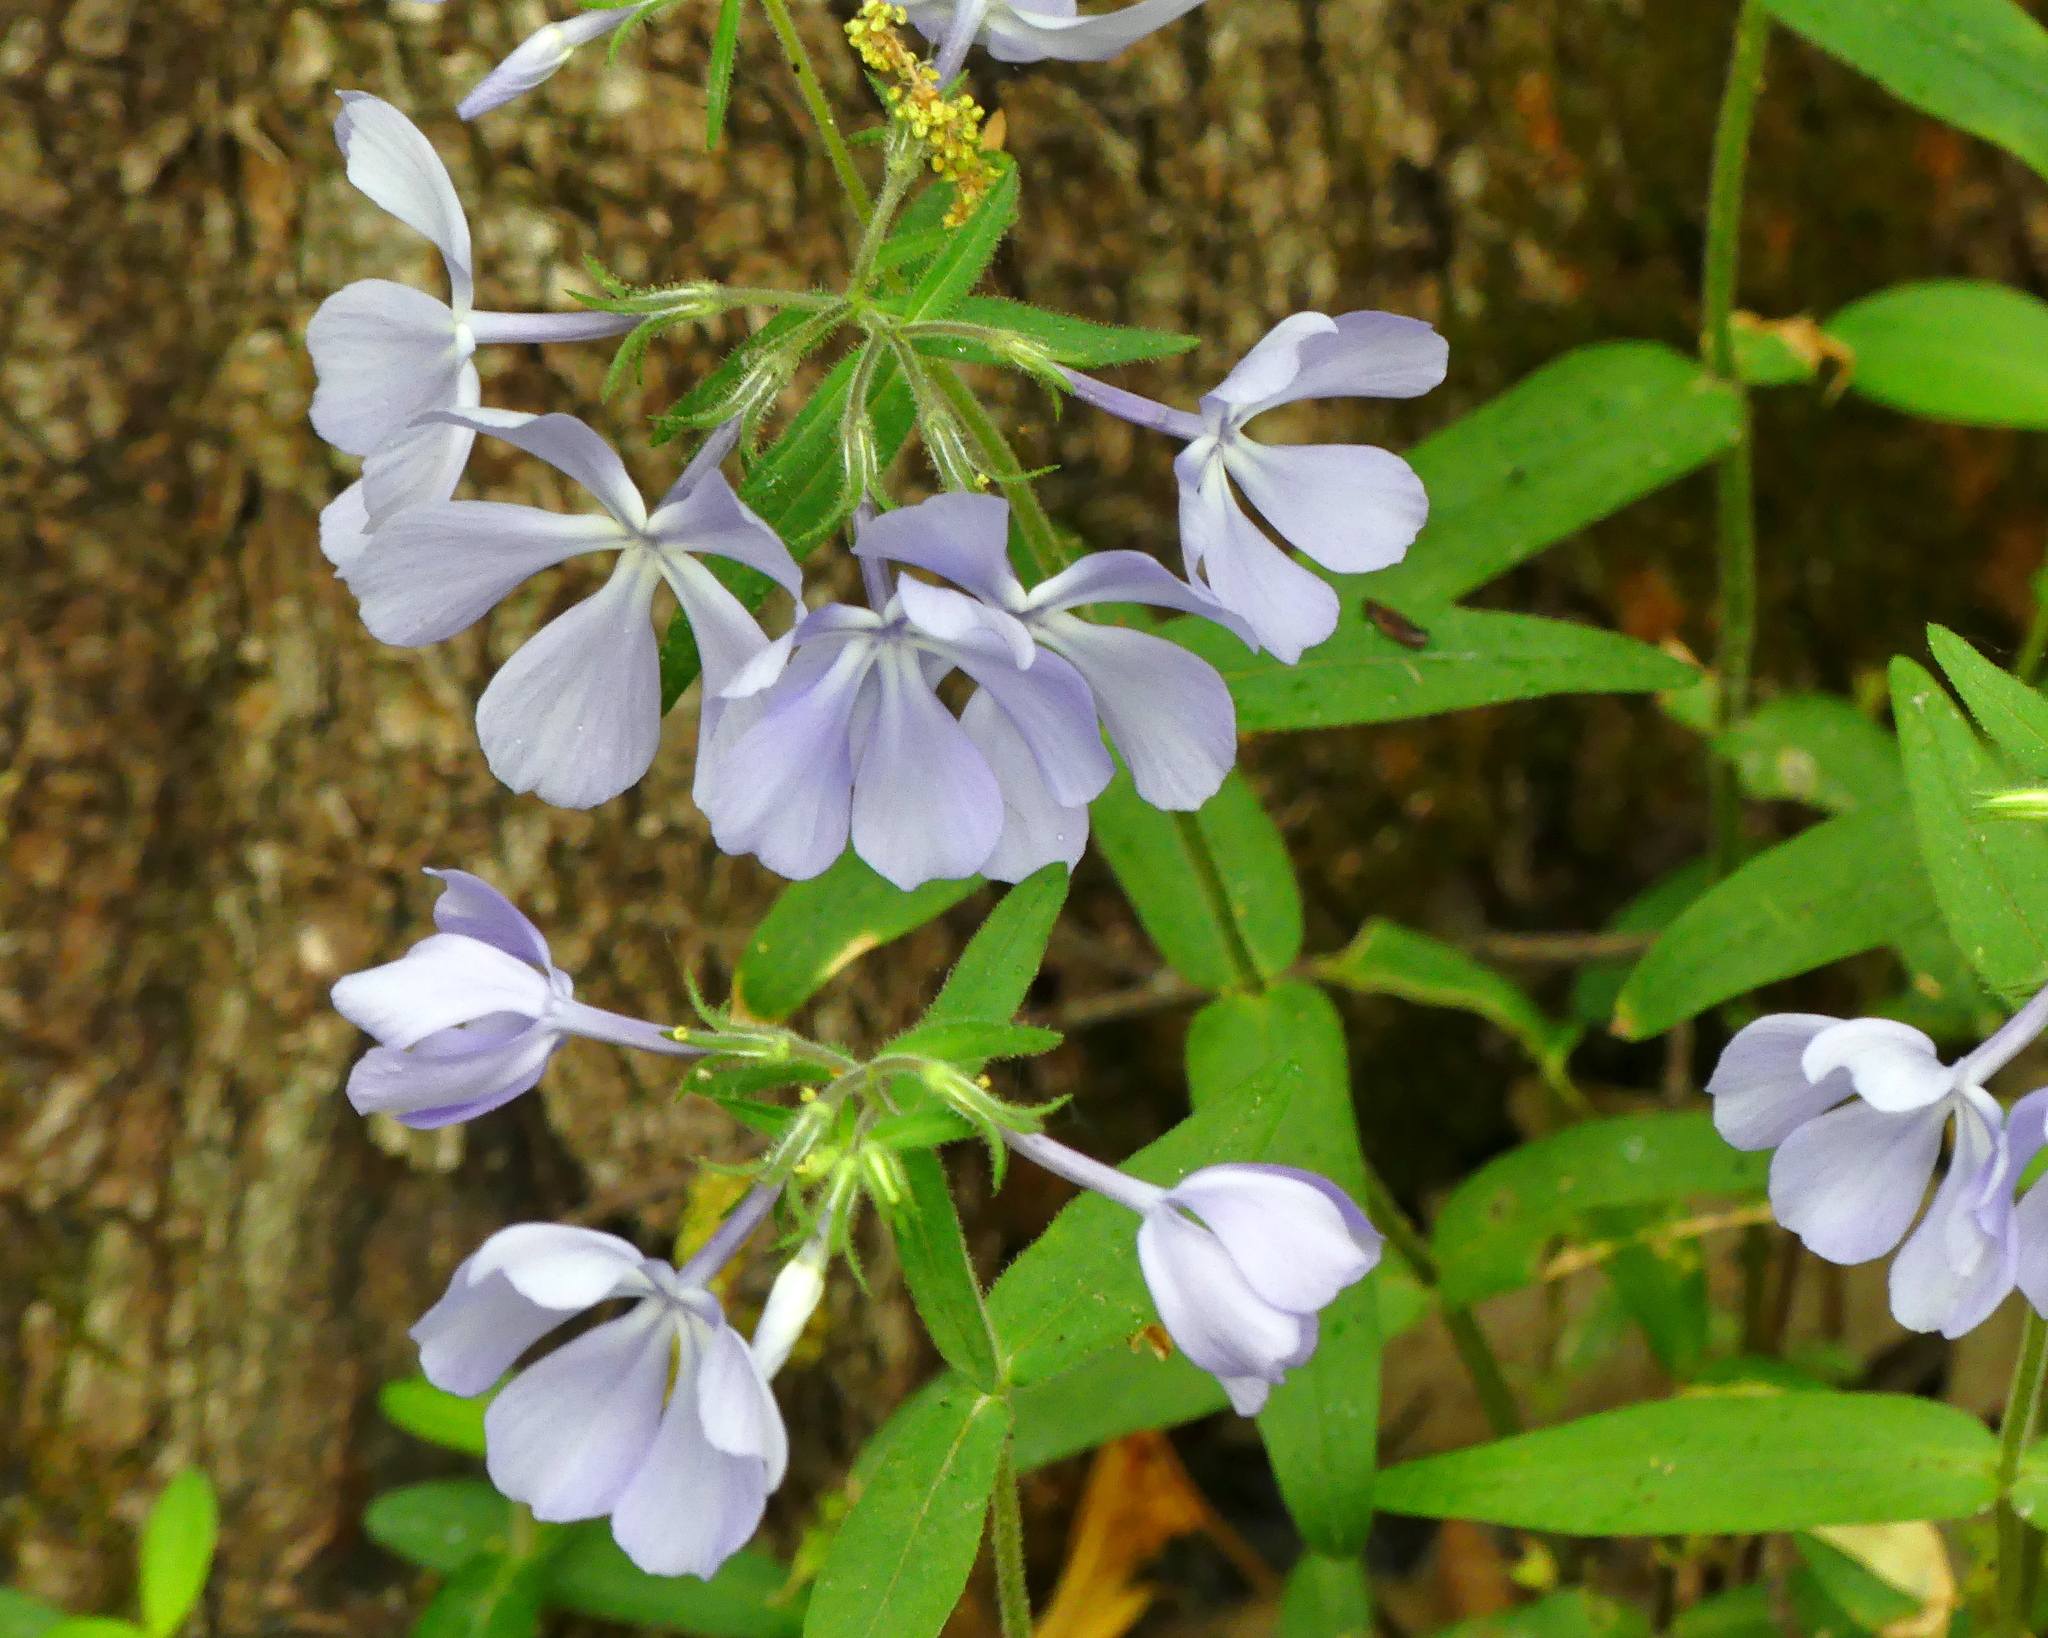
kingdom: Plantae
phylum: Tracheophyta
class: Magnoliopsida
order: Ericales
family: Polemoniaceae
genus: Phlox
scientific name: Phlox divaricata
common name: Blue phlox
